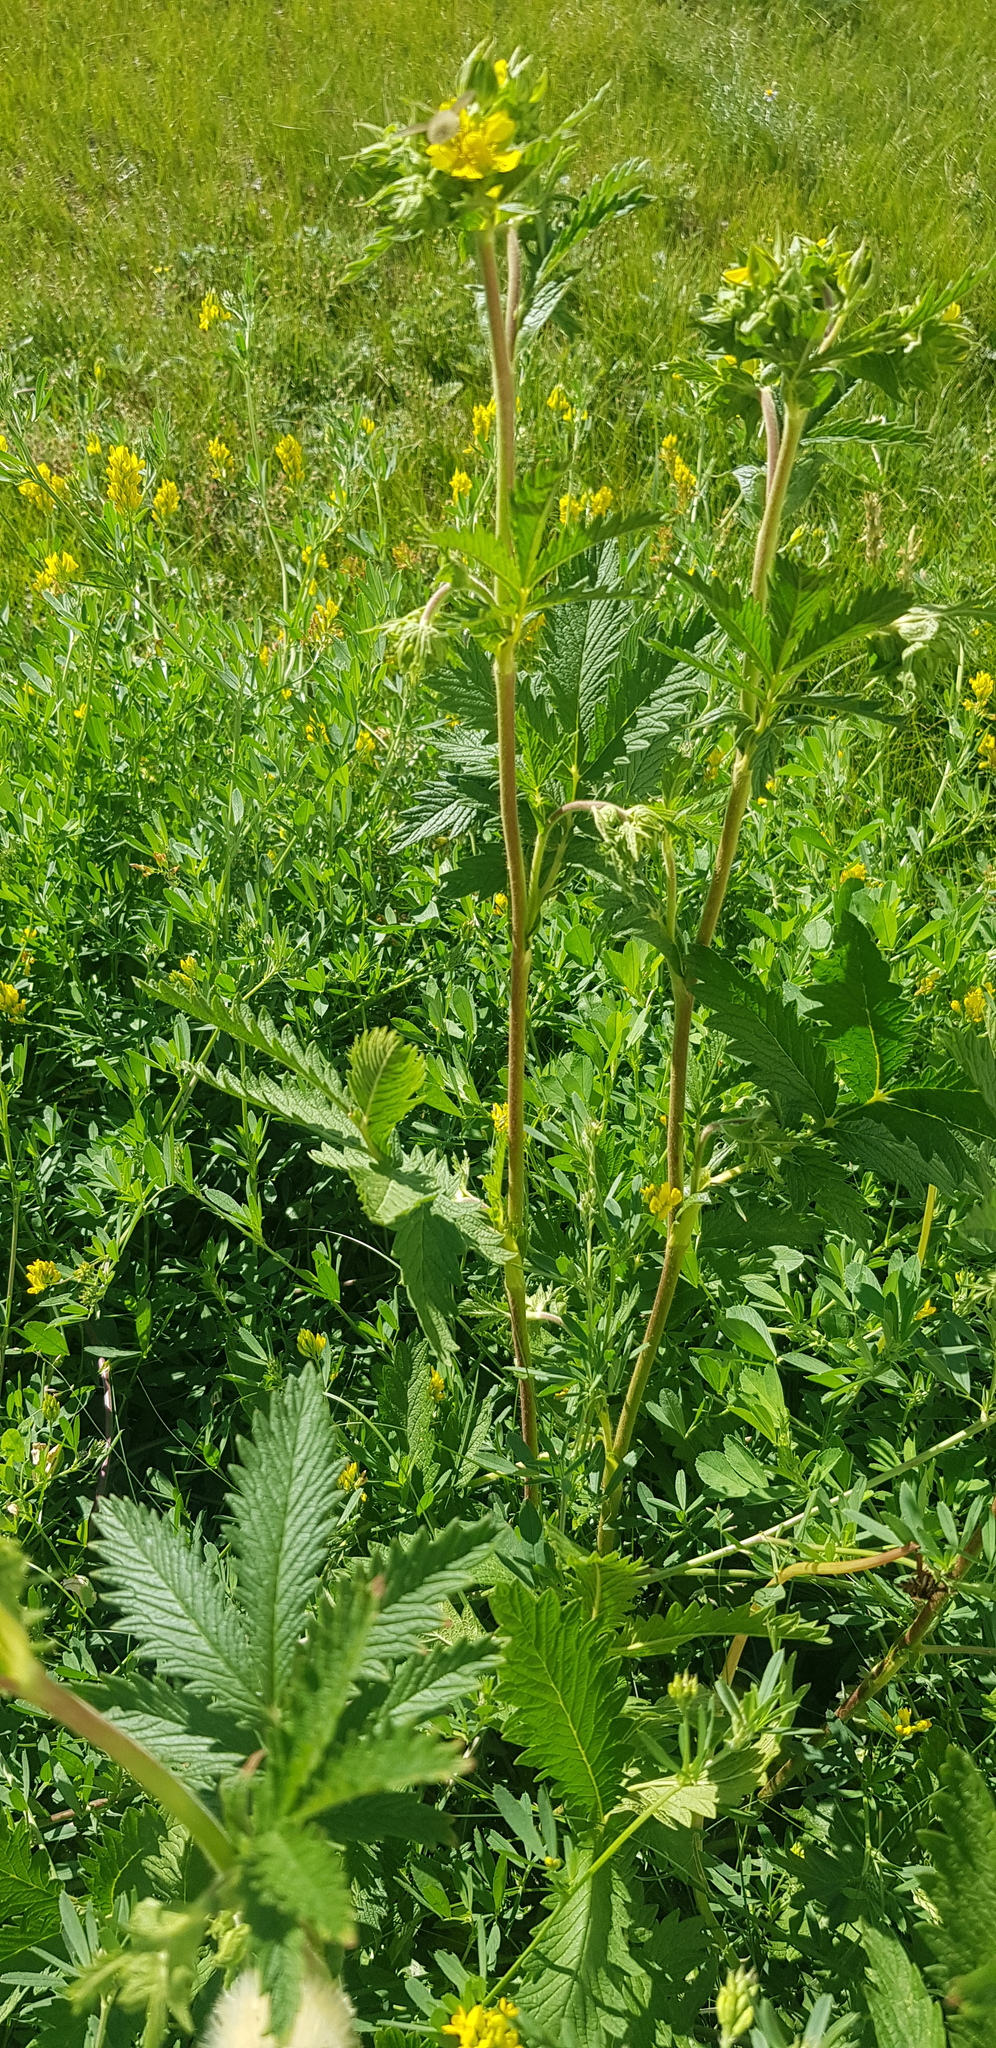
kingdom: Plantae
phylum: Tracheophyta
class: Magnoliopsida
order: Rosales
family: Rosaceae
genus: Potentilla
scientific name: Potentilla tanacetifolia
